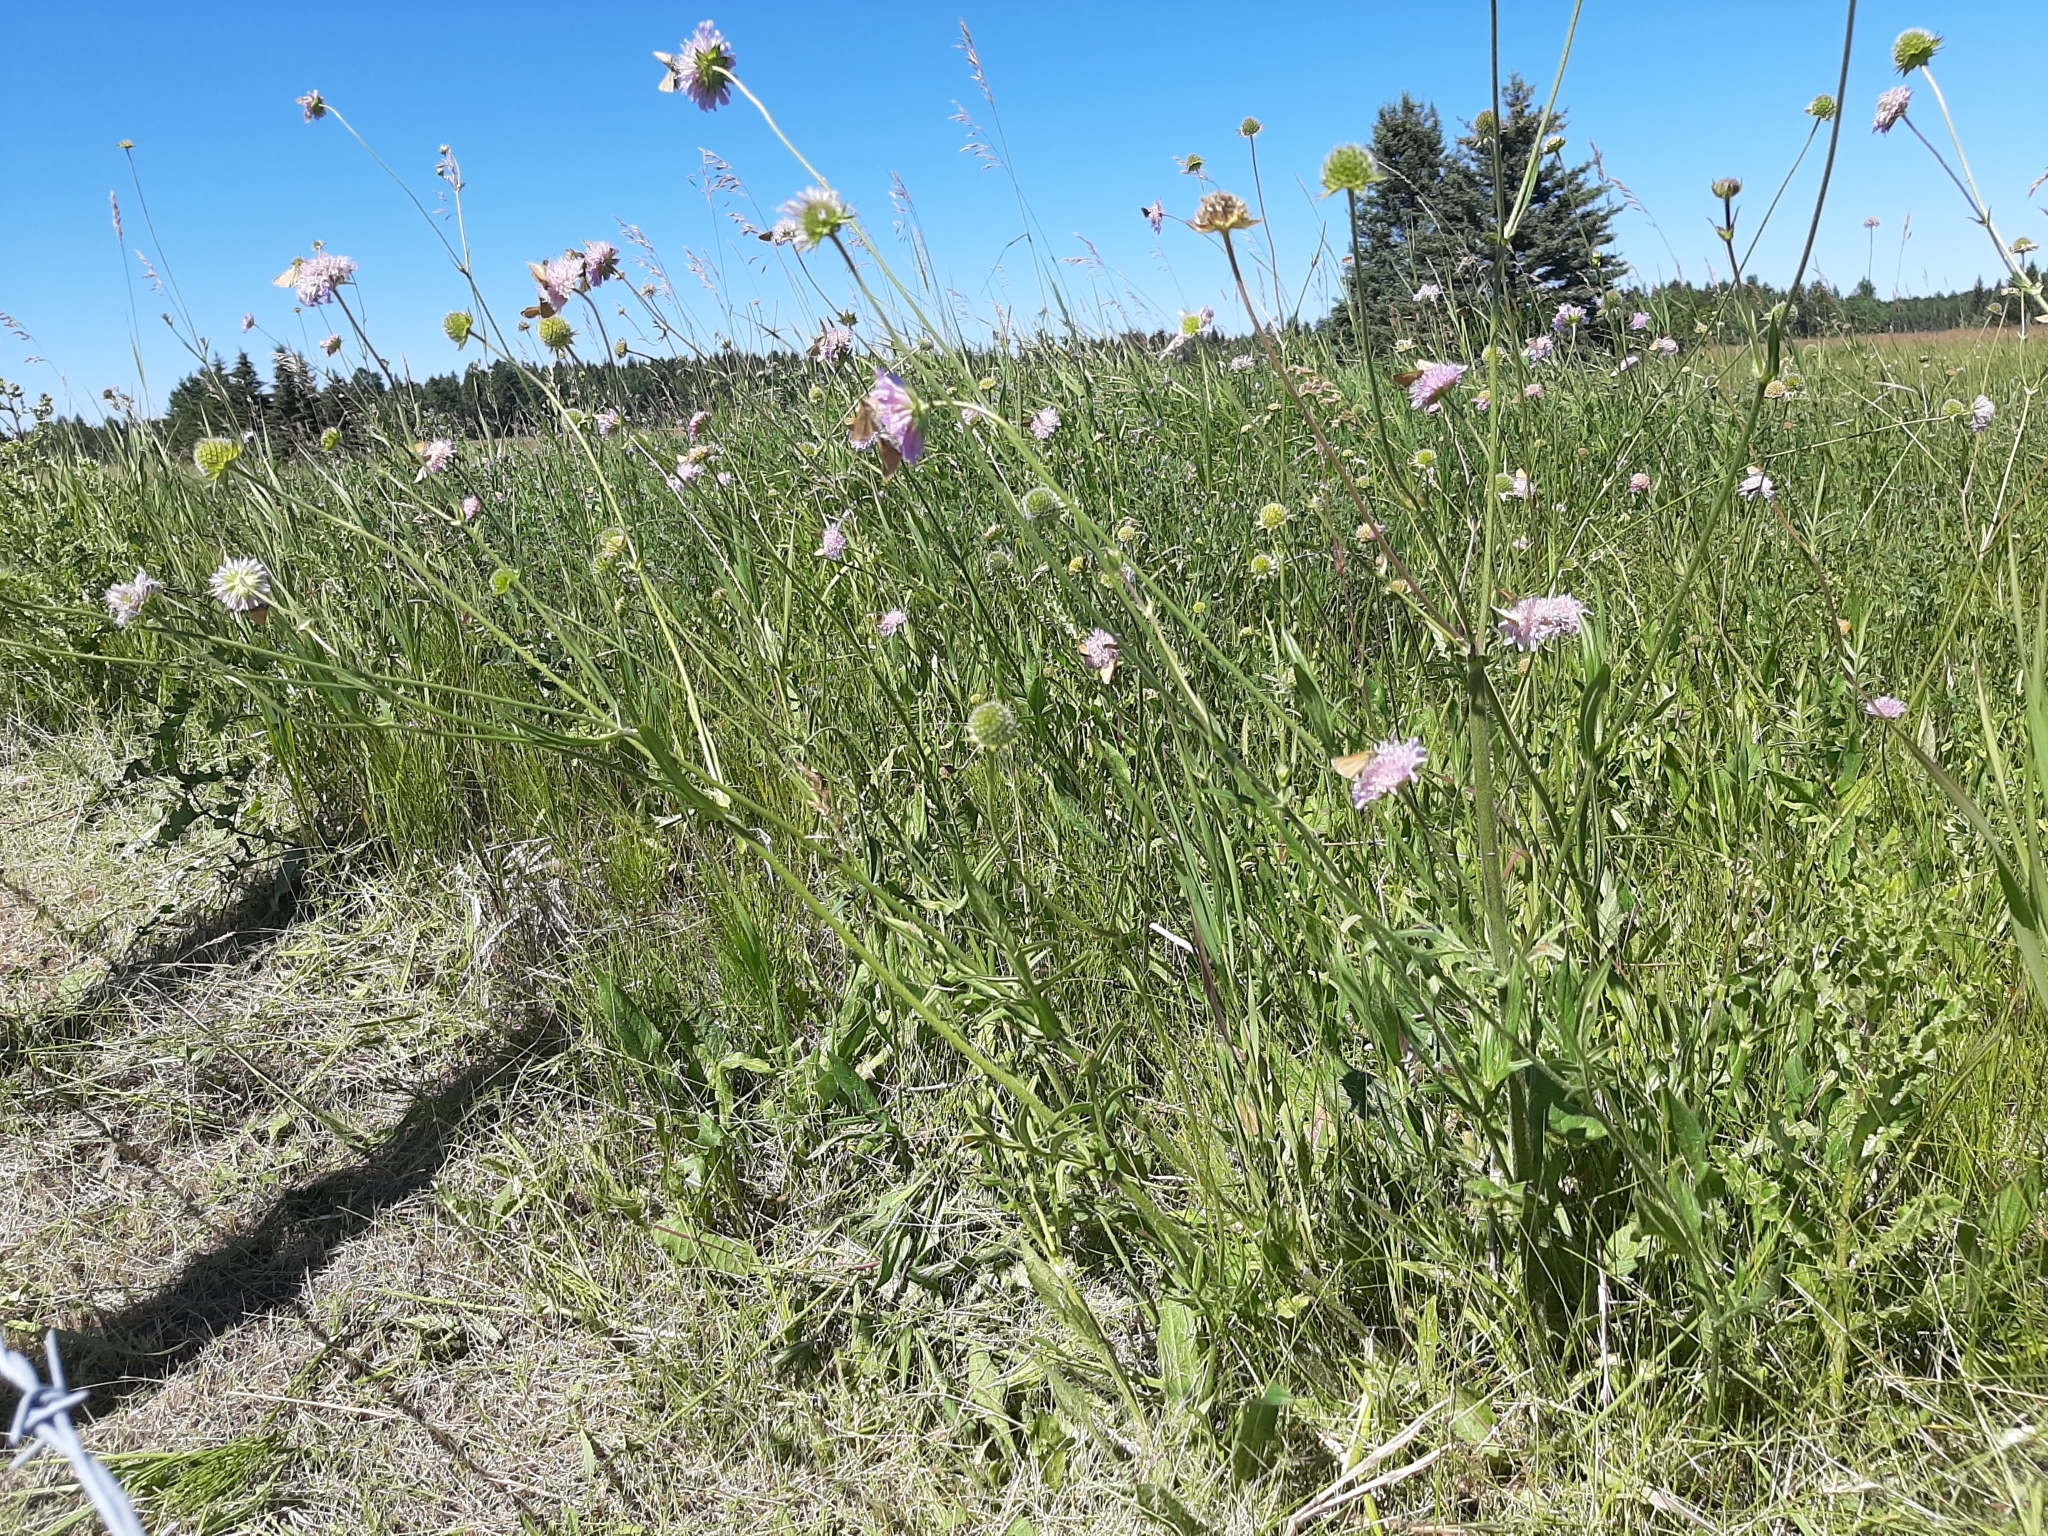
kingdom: Plantae
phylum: Tracheophyta
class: Magnoliopsida
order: Dipsacales
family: Caprifoliaceae
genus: Knautia
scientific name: Knautia arvensis
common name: Field scabiosa
